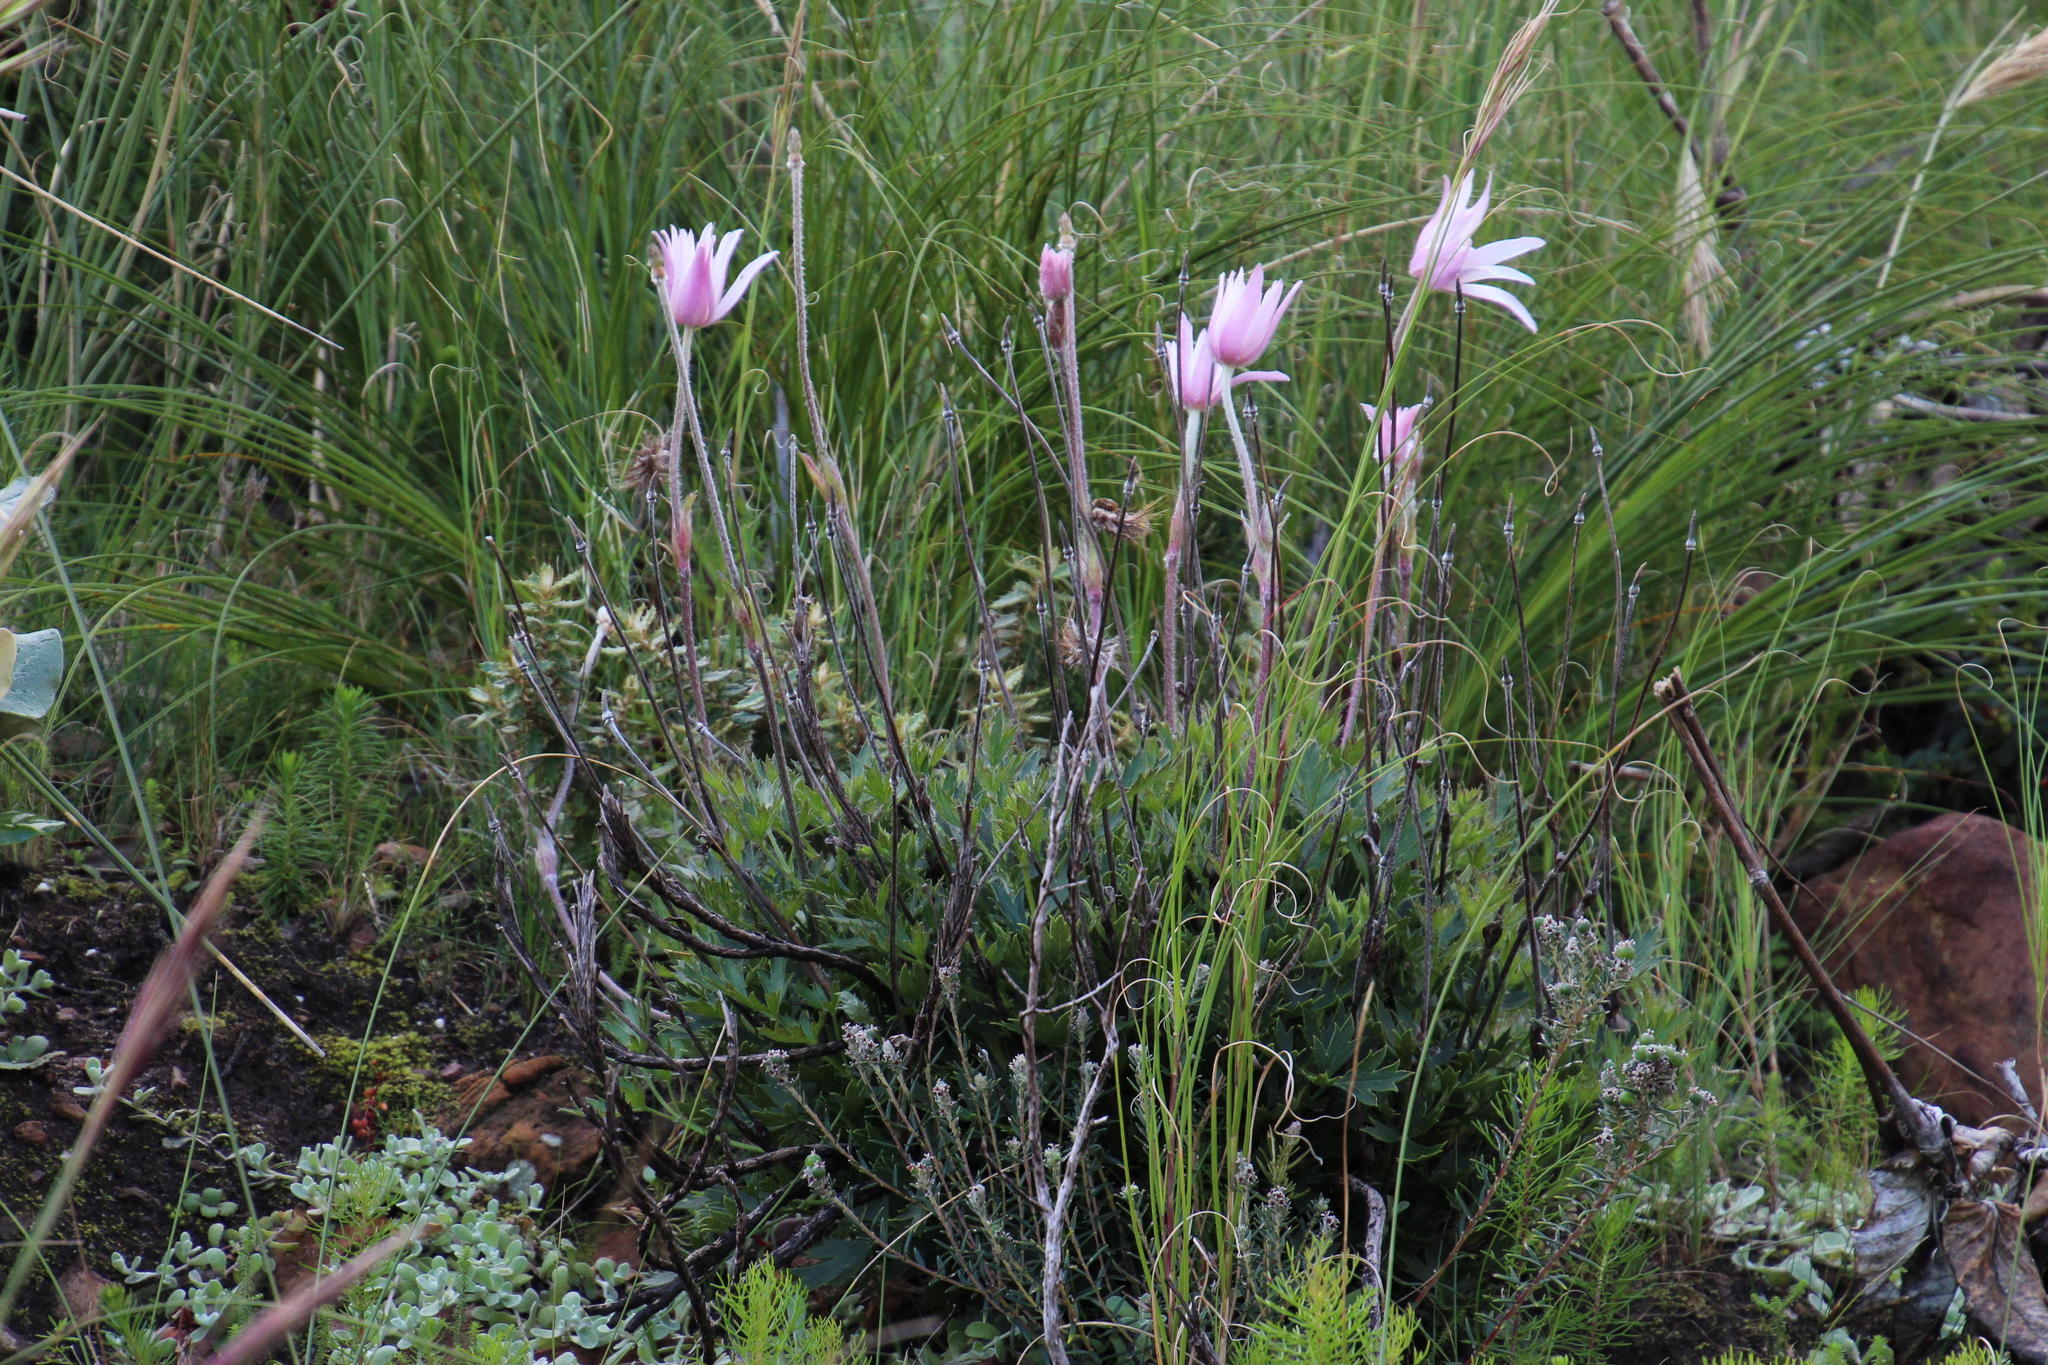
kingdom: Plantae
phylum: Tracheophyta
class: Magnoliopsida
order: Ranunculales
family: Ranunculaceae
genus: Knowltonia
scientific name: Knowltonia tenuifolia
